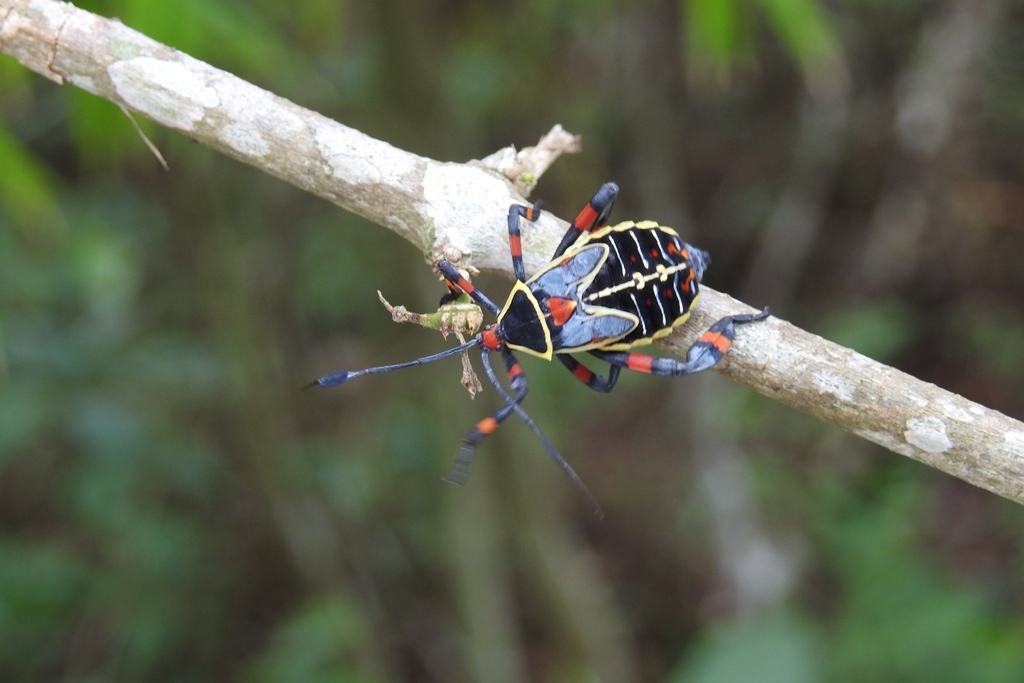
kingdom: Animalia
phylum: Arthropoda
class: Insecta
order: Hemiptera
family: Coreidae
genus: Thasus
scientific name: Thasus acutangulus
